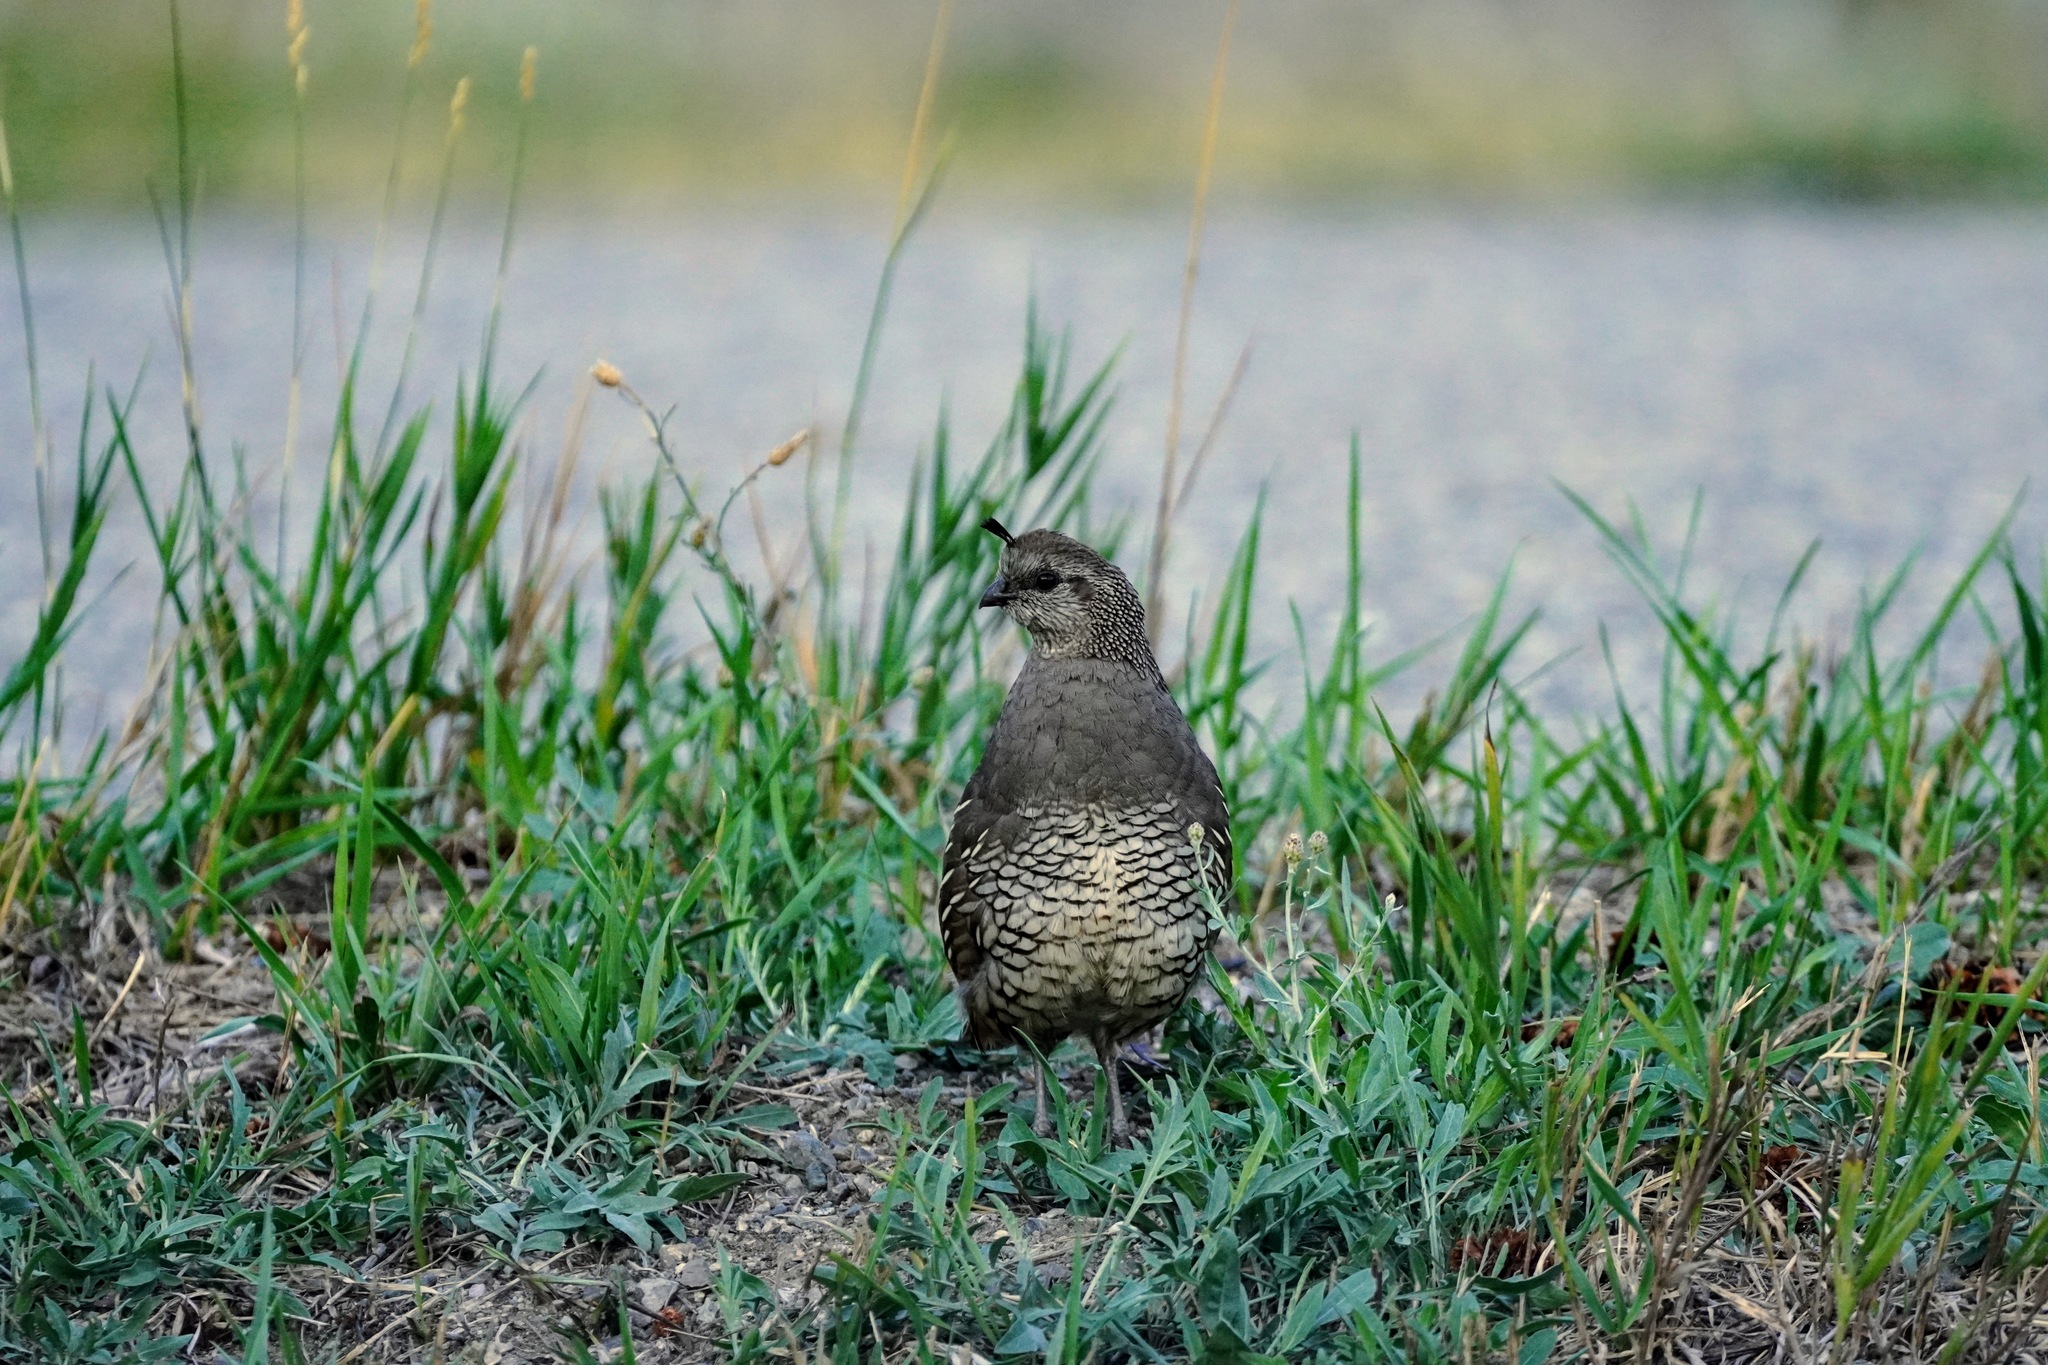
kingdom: Animalia
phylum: Chordata
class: Aves
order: Galliformes
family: Odontophoridae
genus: Callipepla
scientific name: Callipepla californica
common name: California quail
